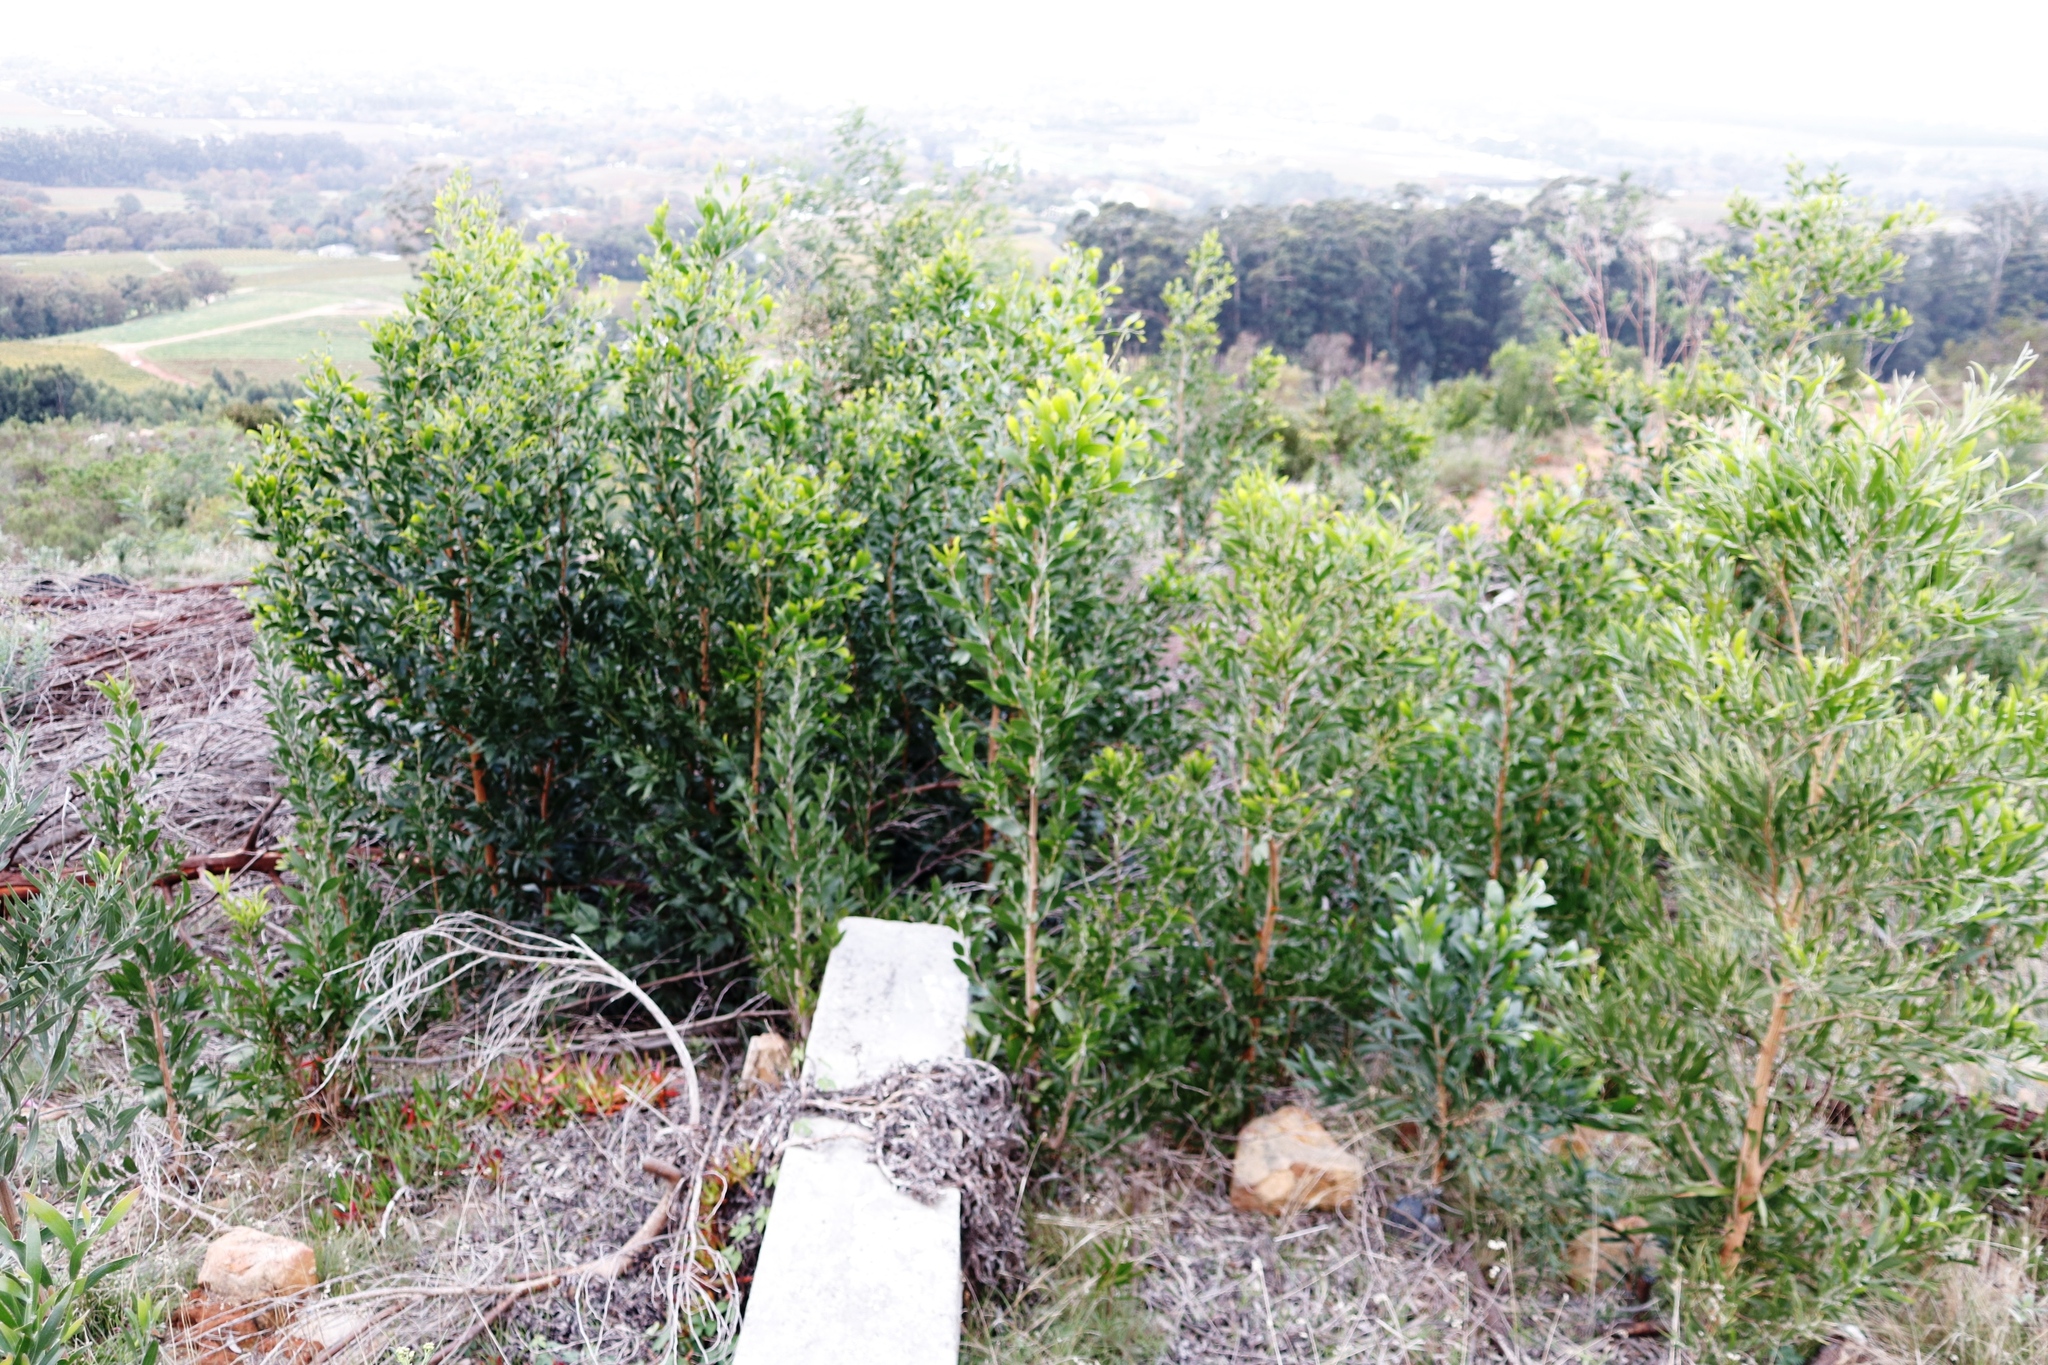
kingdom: Plantae
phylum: Tracheophyta
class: Magnoliopsida
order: Fabales
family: Fabaceae
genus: Acacia
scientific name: Acacia melanoxylon
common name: Blackwood
